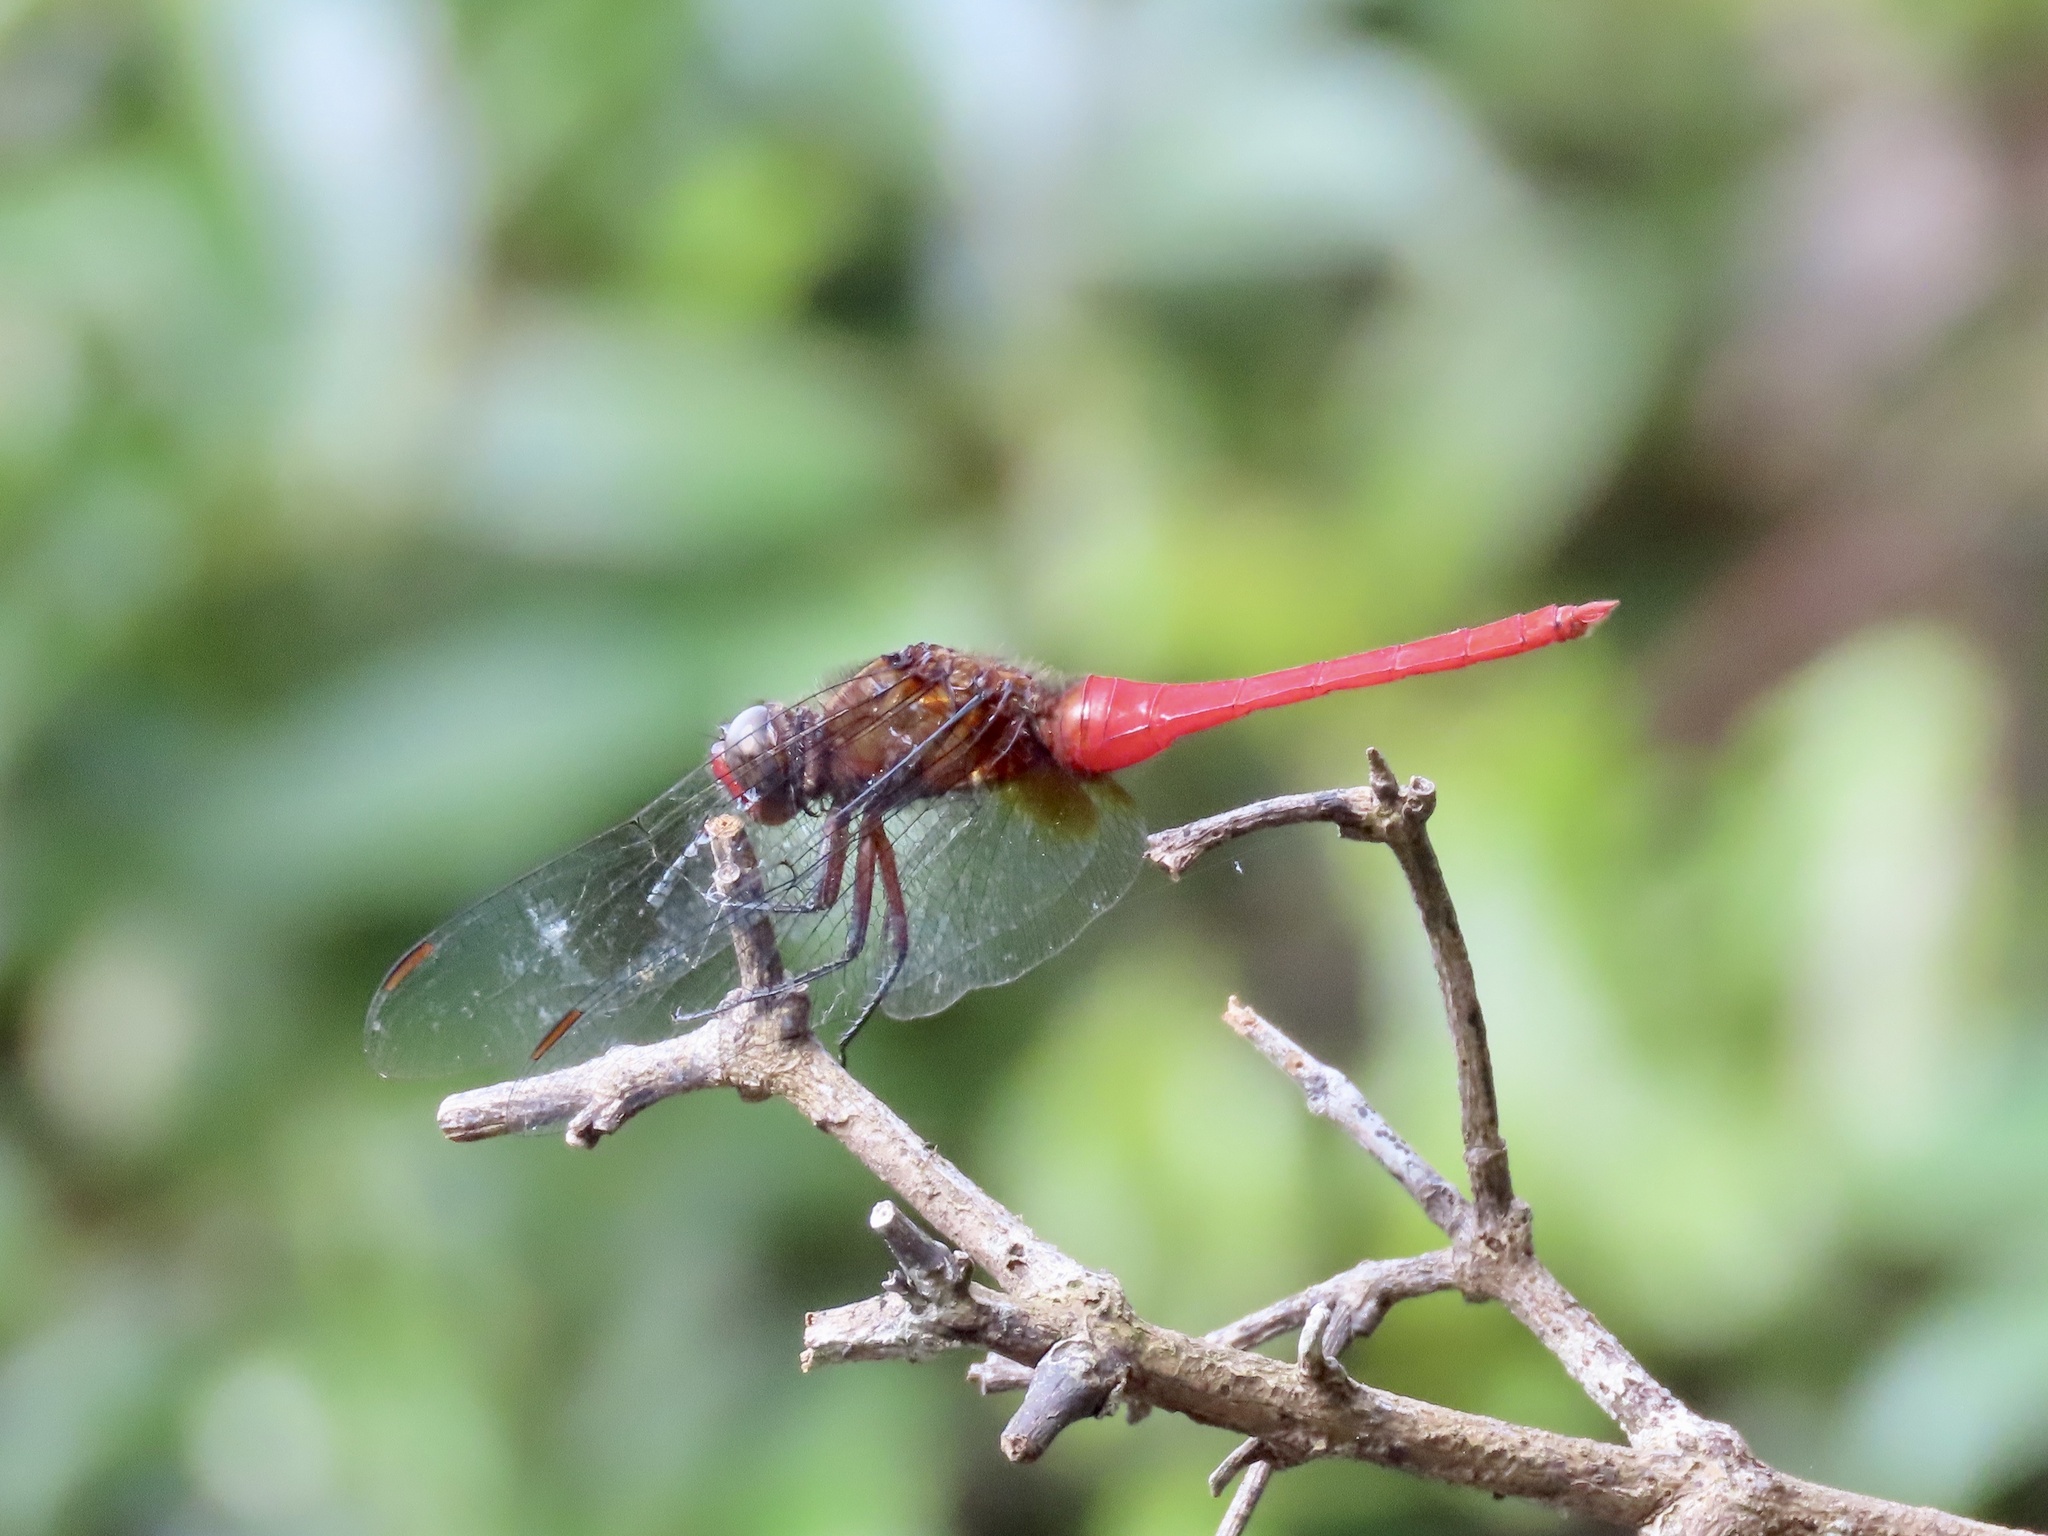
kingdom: Animalia
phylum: Arthropoda
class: Insecta
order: Odonata
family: Libellulidae
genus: Orthetrum
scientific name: Orthetrum chrysis
